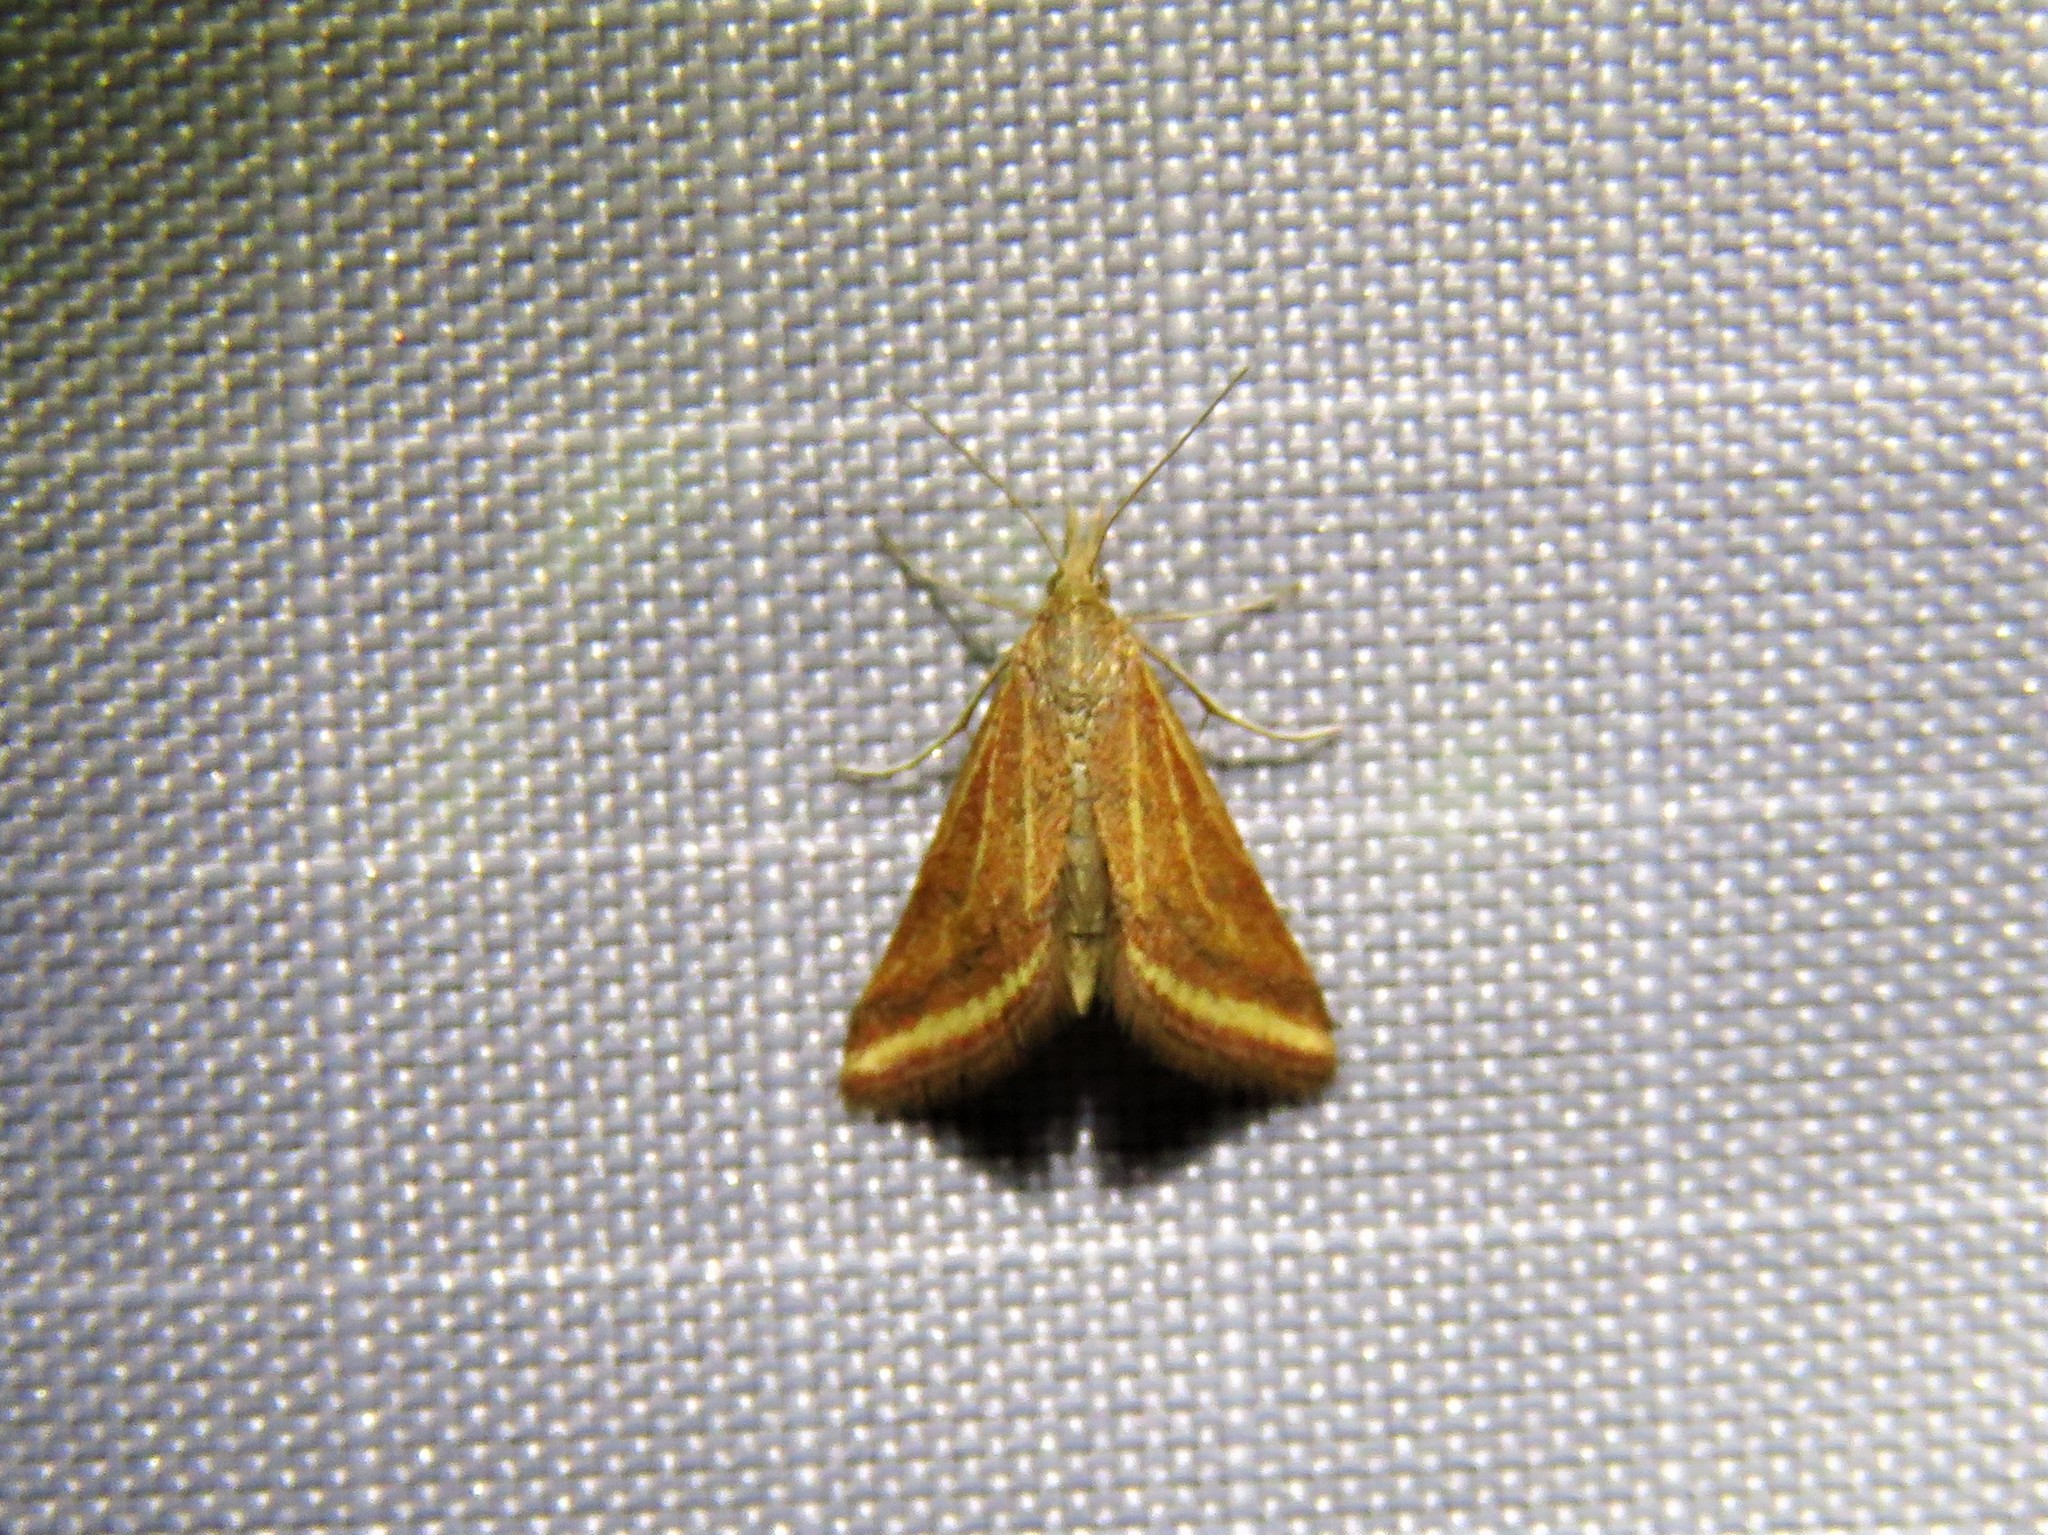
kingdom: Animalia
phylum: Arthropoda
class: Insecta
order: Lepidoptera
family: Crambidae
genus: Microtheoris
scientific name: Microtheoris ophionalis
